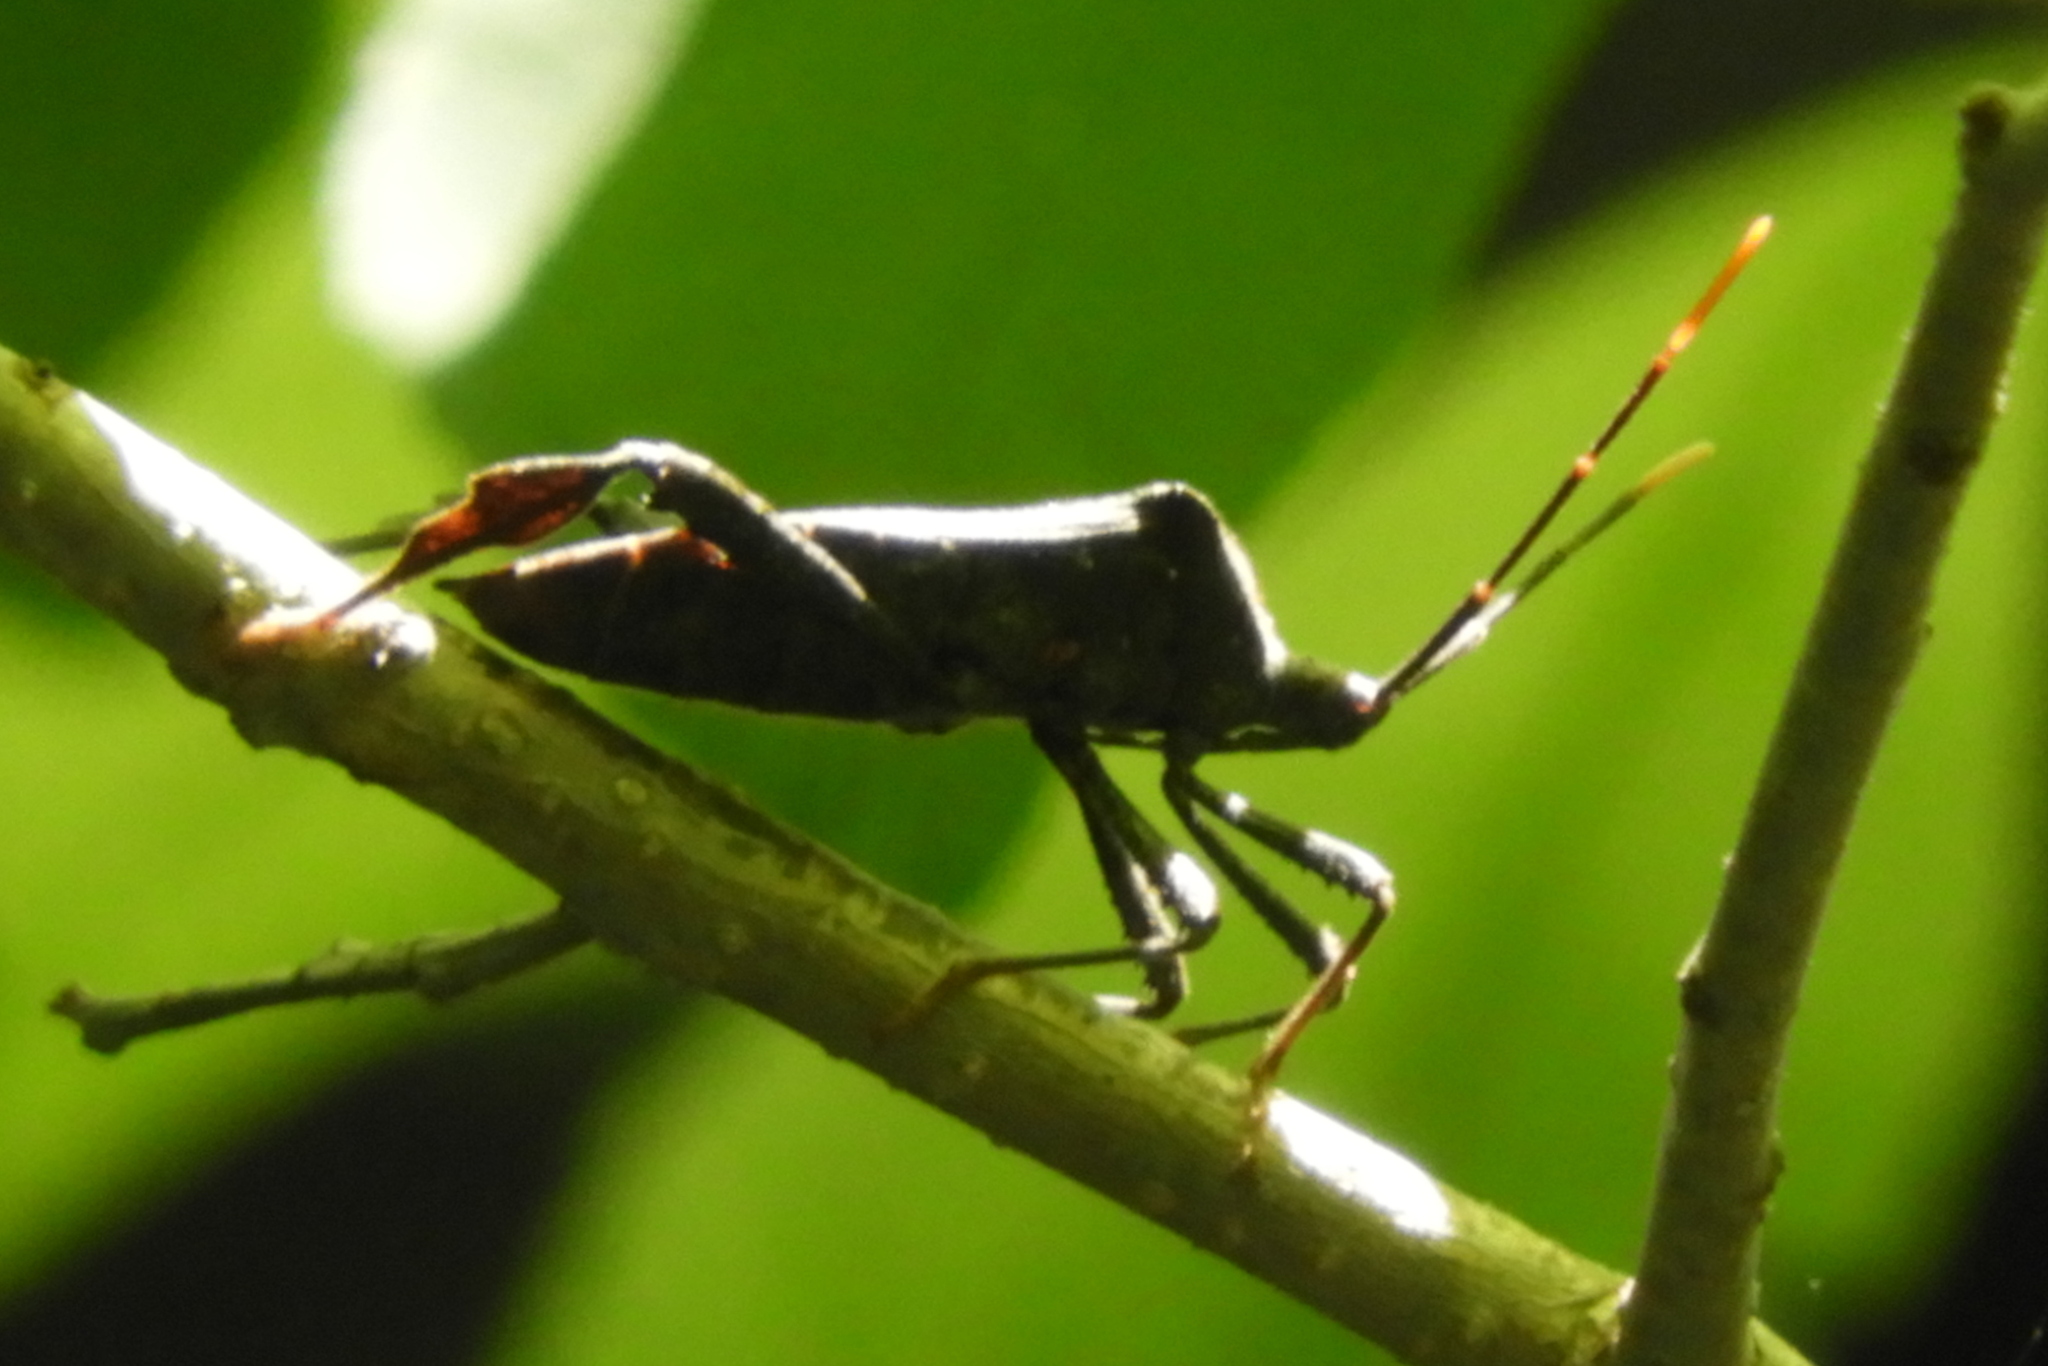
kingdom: Animalia
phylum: Arthropoda
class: Insecta
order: Hemiptera
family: Coreidae
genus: Acanthocephala
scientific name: Acanthocephala terminalis
